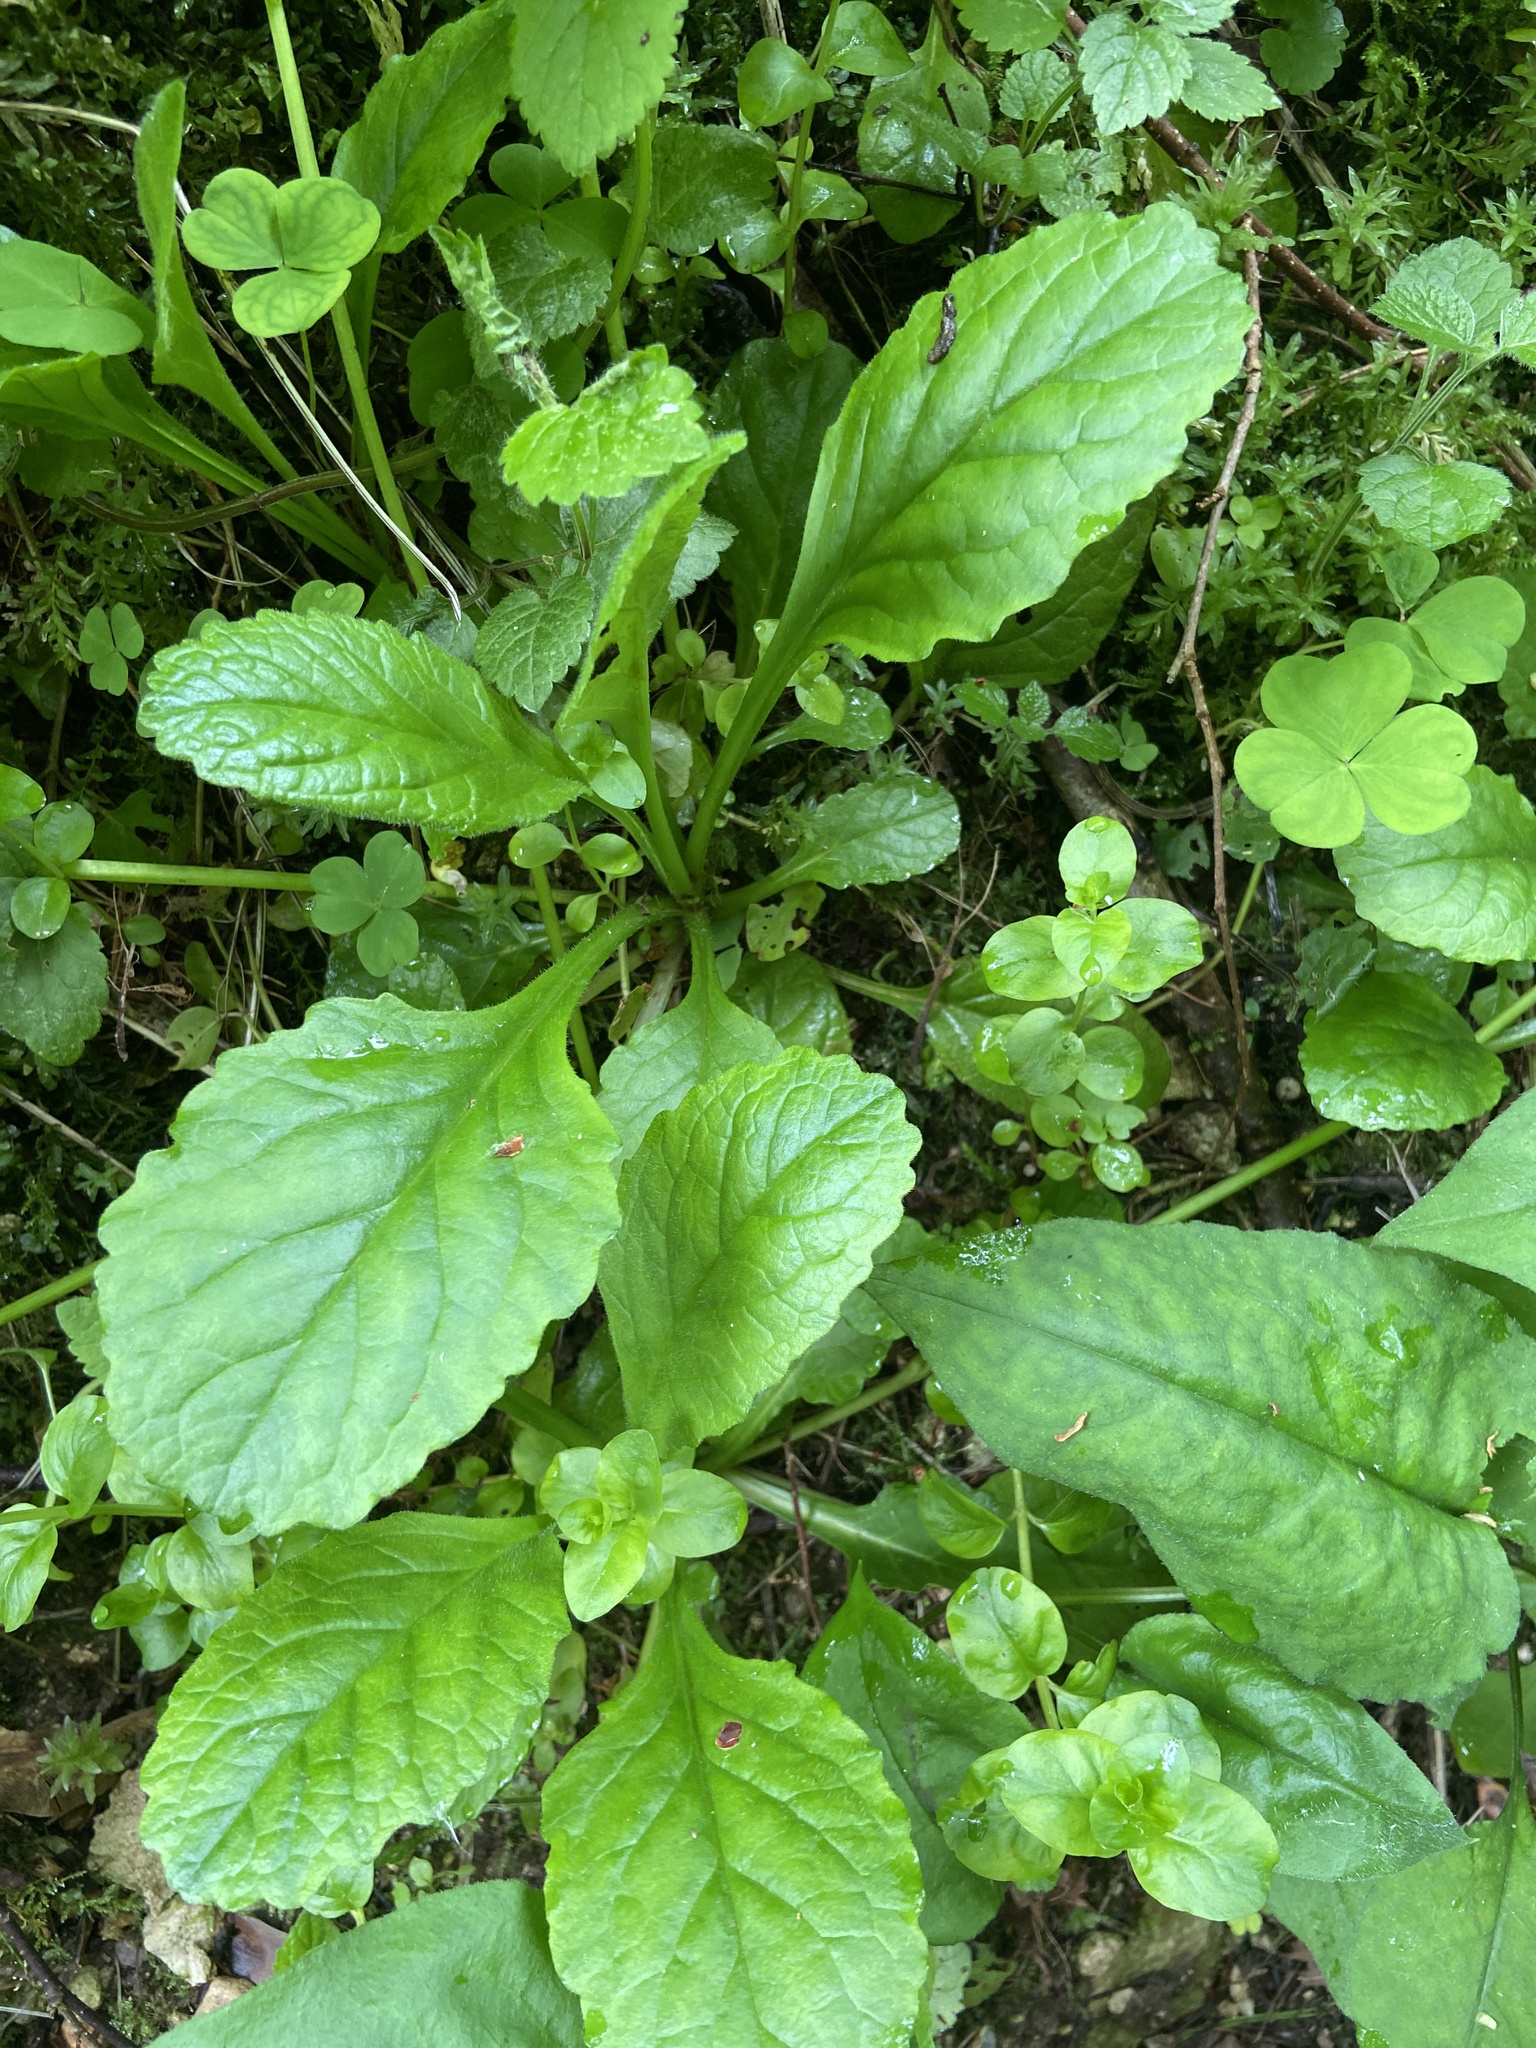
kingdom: Plantae
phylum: Tracheophyta
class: Magnoliopsida
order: Lamiales
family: Lamiaceae
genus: Ajuga
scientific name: Ajuga reptans
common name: Bugle
